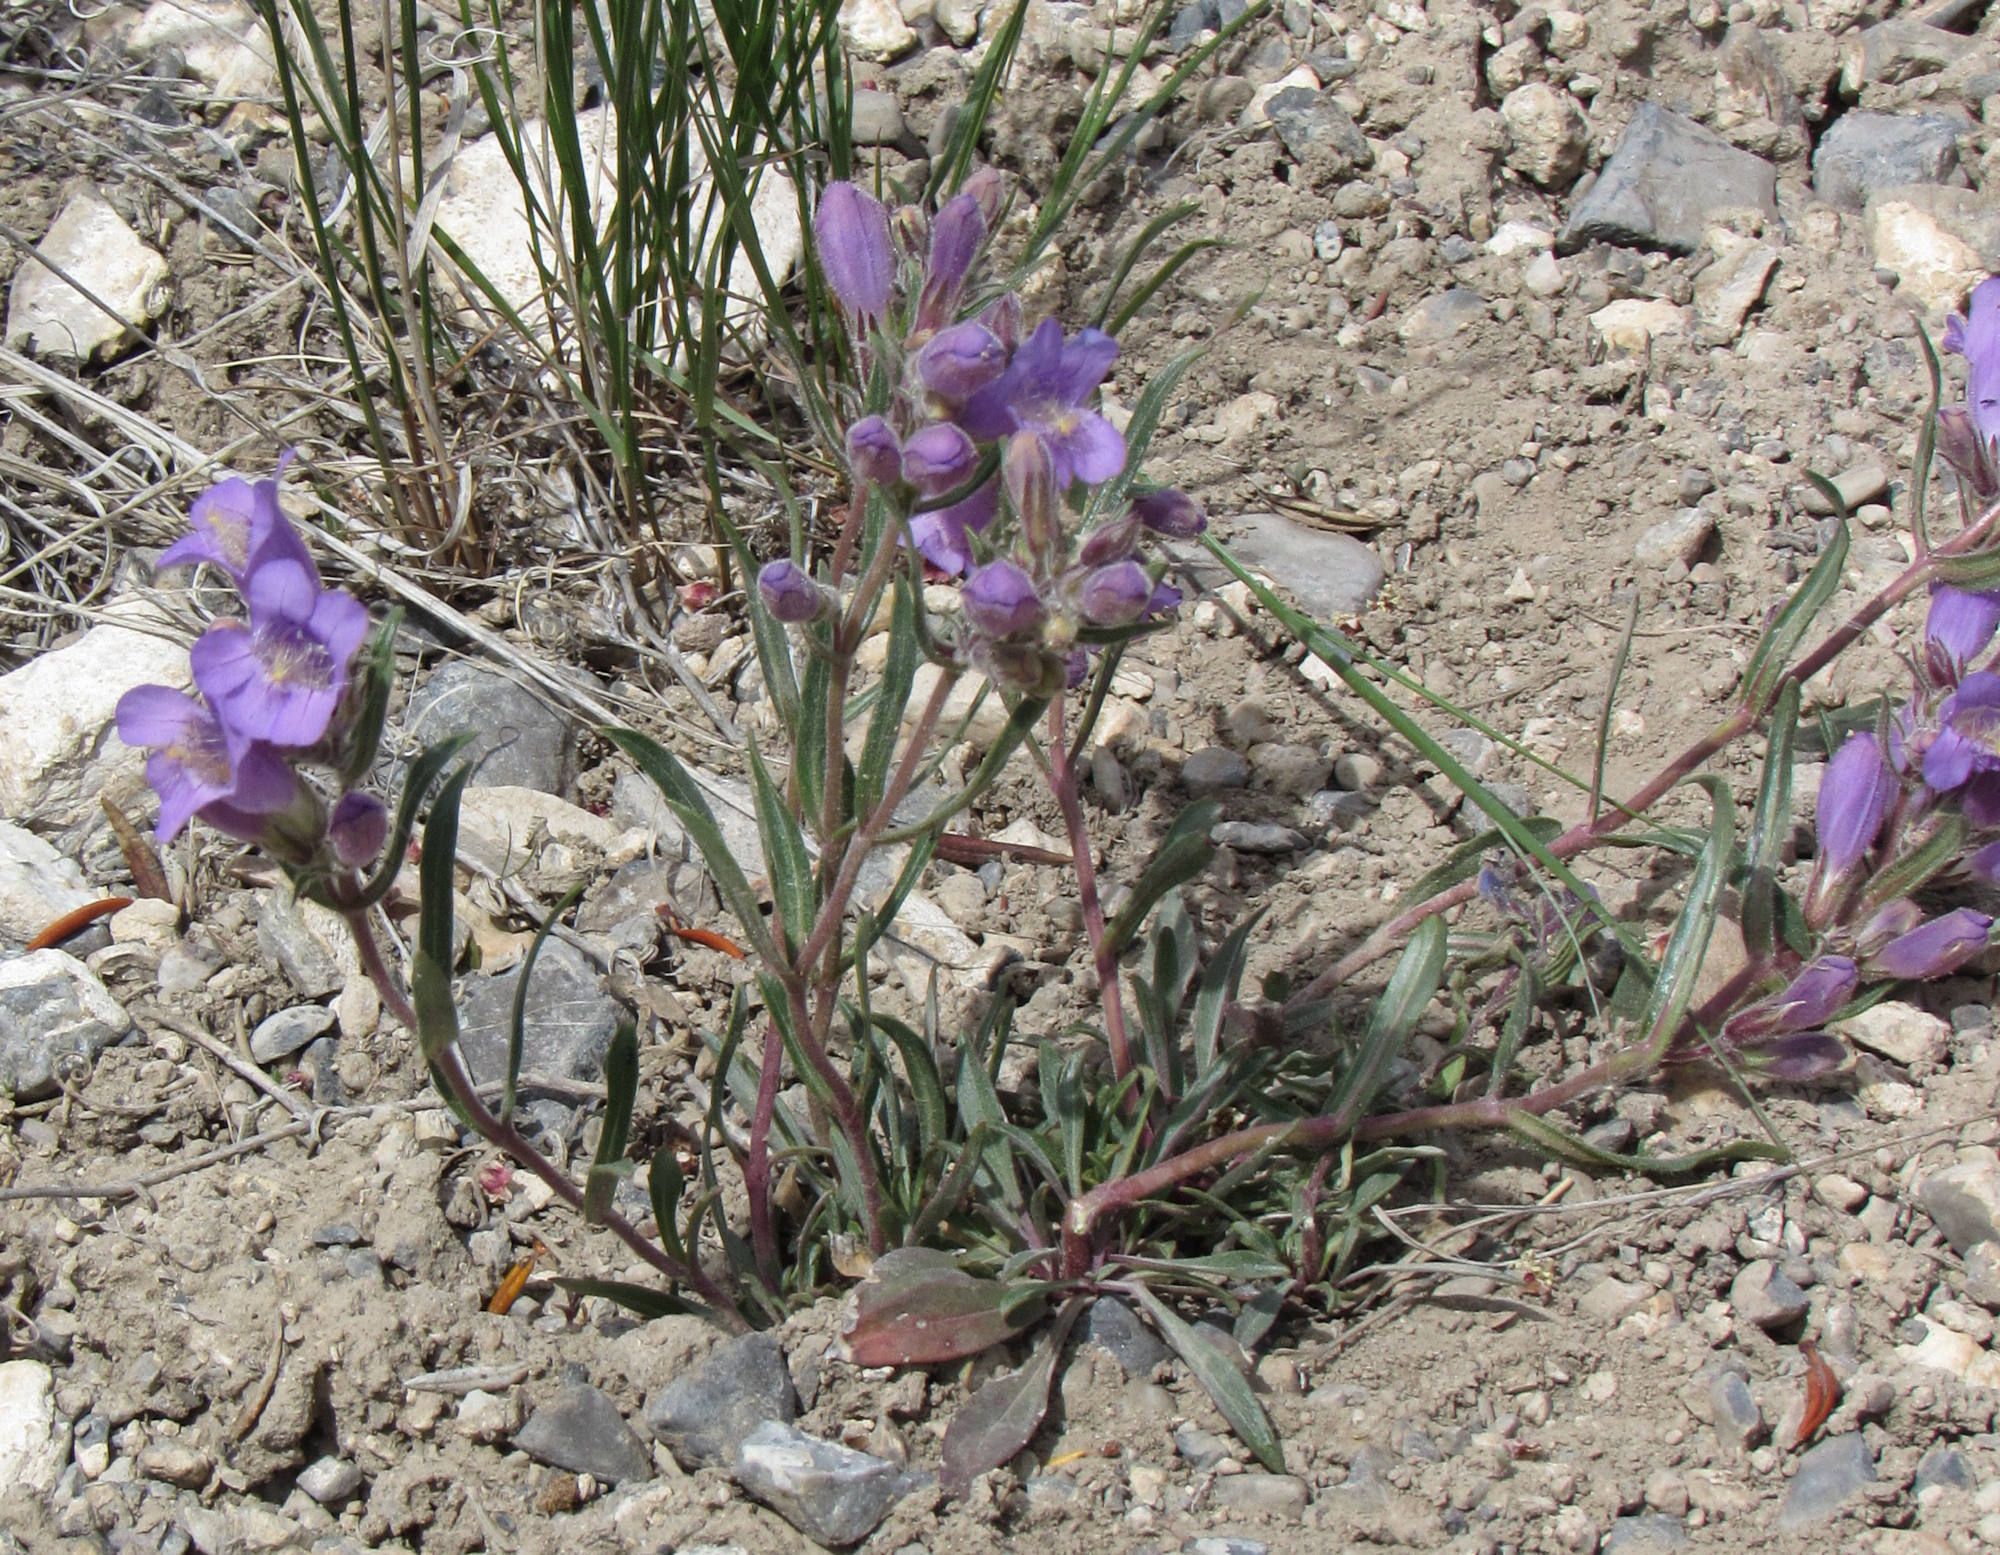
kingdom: Plantae
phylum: Tracheophyta
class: Magnoliopsida
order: Lamiales
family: Plantaginaceae
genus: Penstemon
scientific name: Penstemon eriantherus
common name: Crested beardtongue
